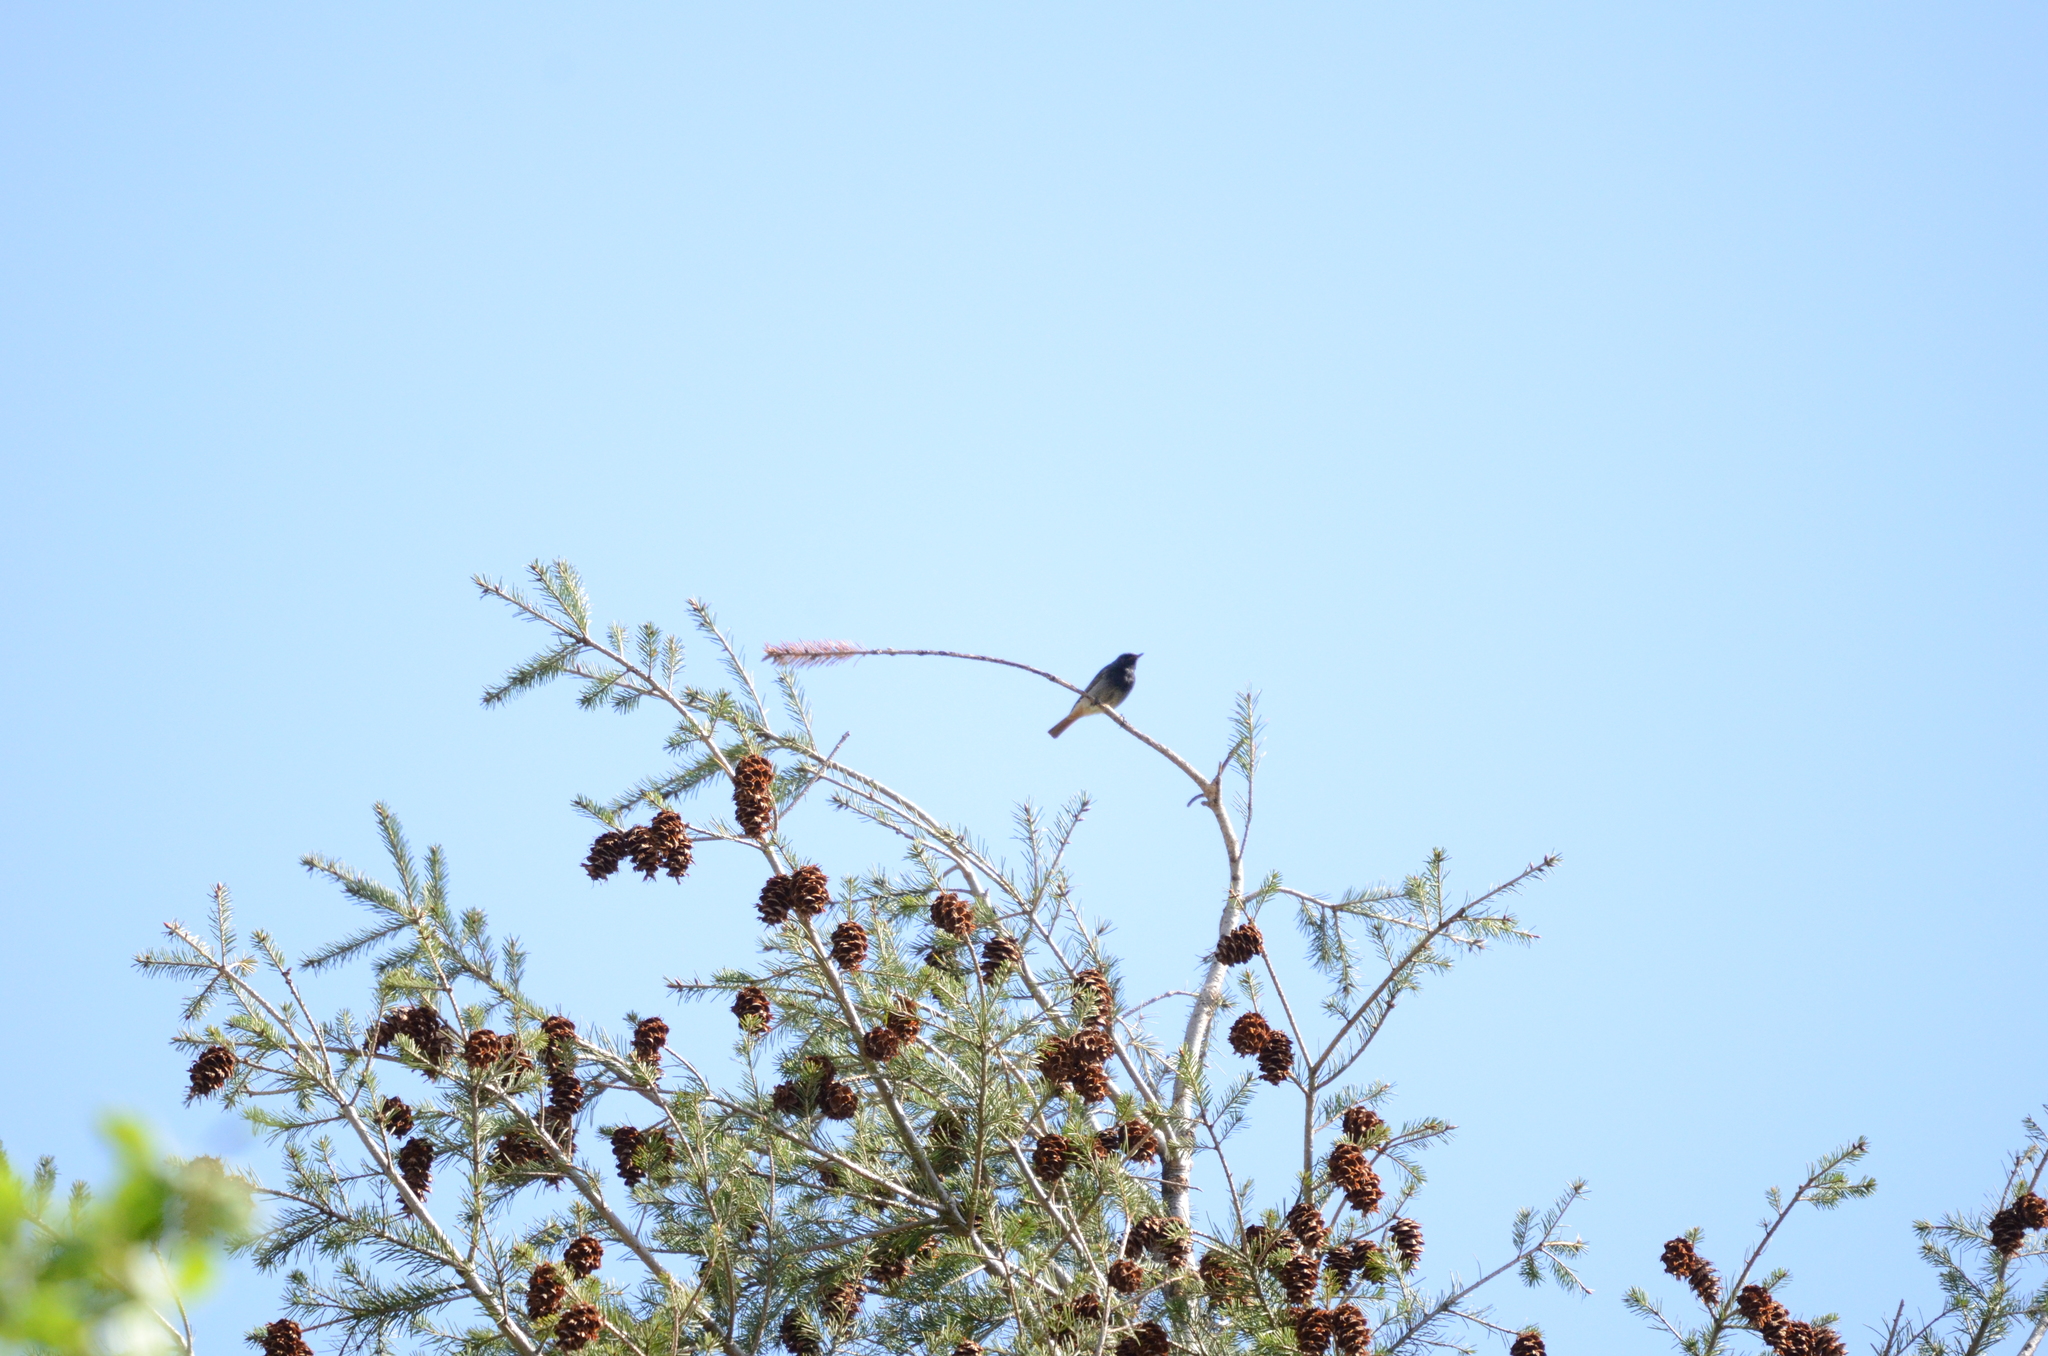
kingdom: Animalia
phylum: Chordata
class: Aves
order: Passeriformes
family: Muscicapidae
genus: Phoenicurus
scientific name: Phoenicurus ochruros
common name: Black redstart
